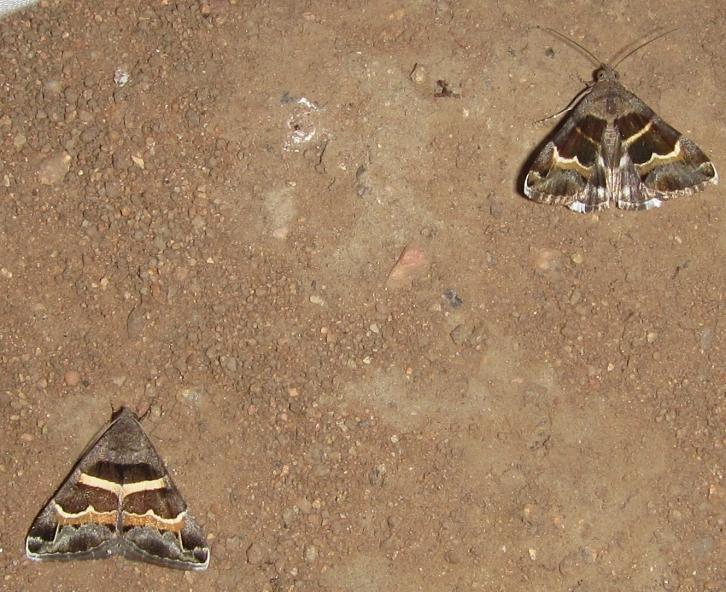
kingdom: Animalia
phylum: Arthropoda
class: Insecta
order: Lepidoptera
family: Erebidae
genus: Grammodes
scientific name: Grammodes stolida
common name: Geometrician
